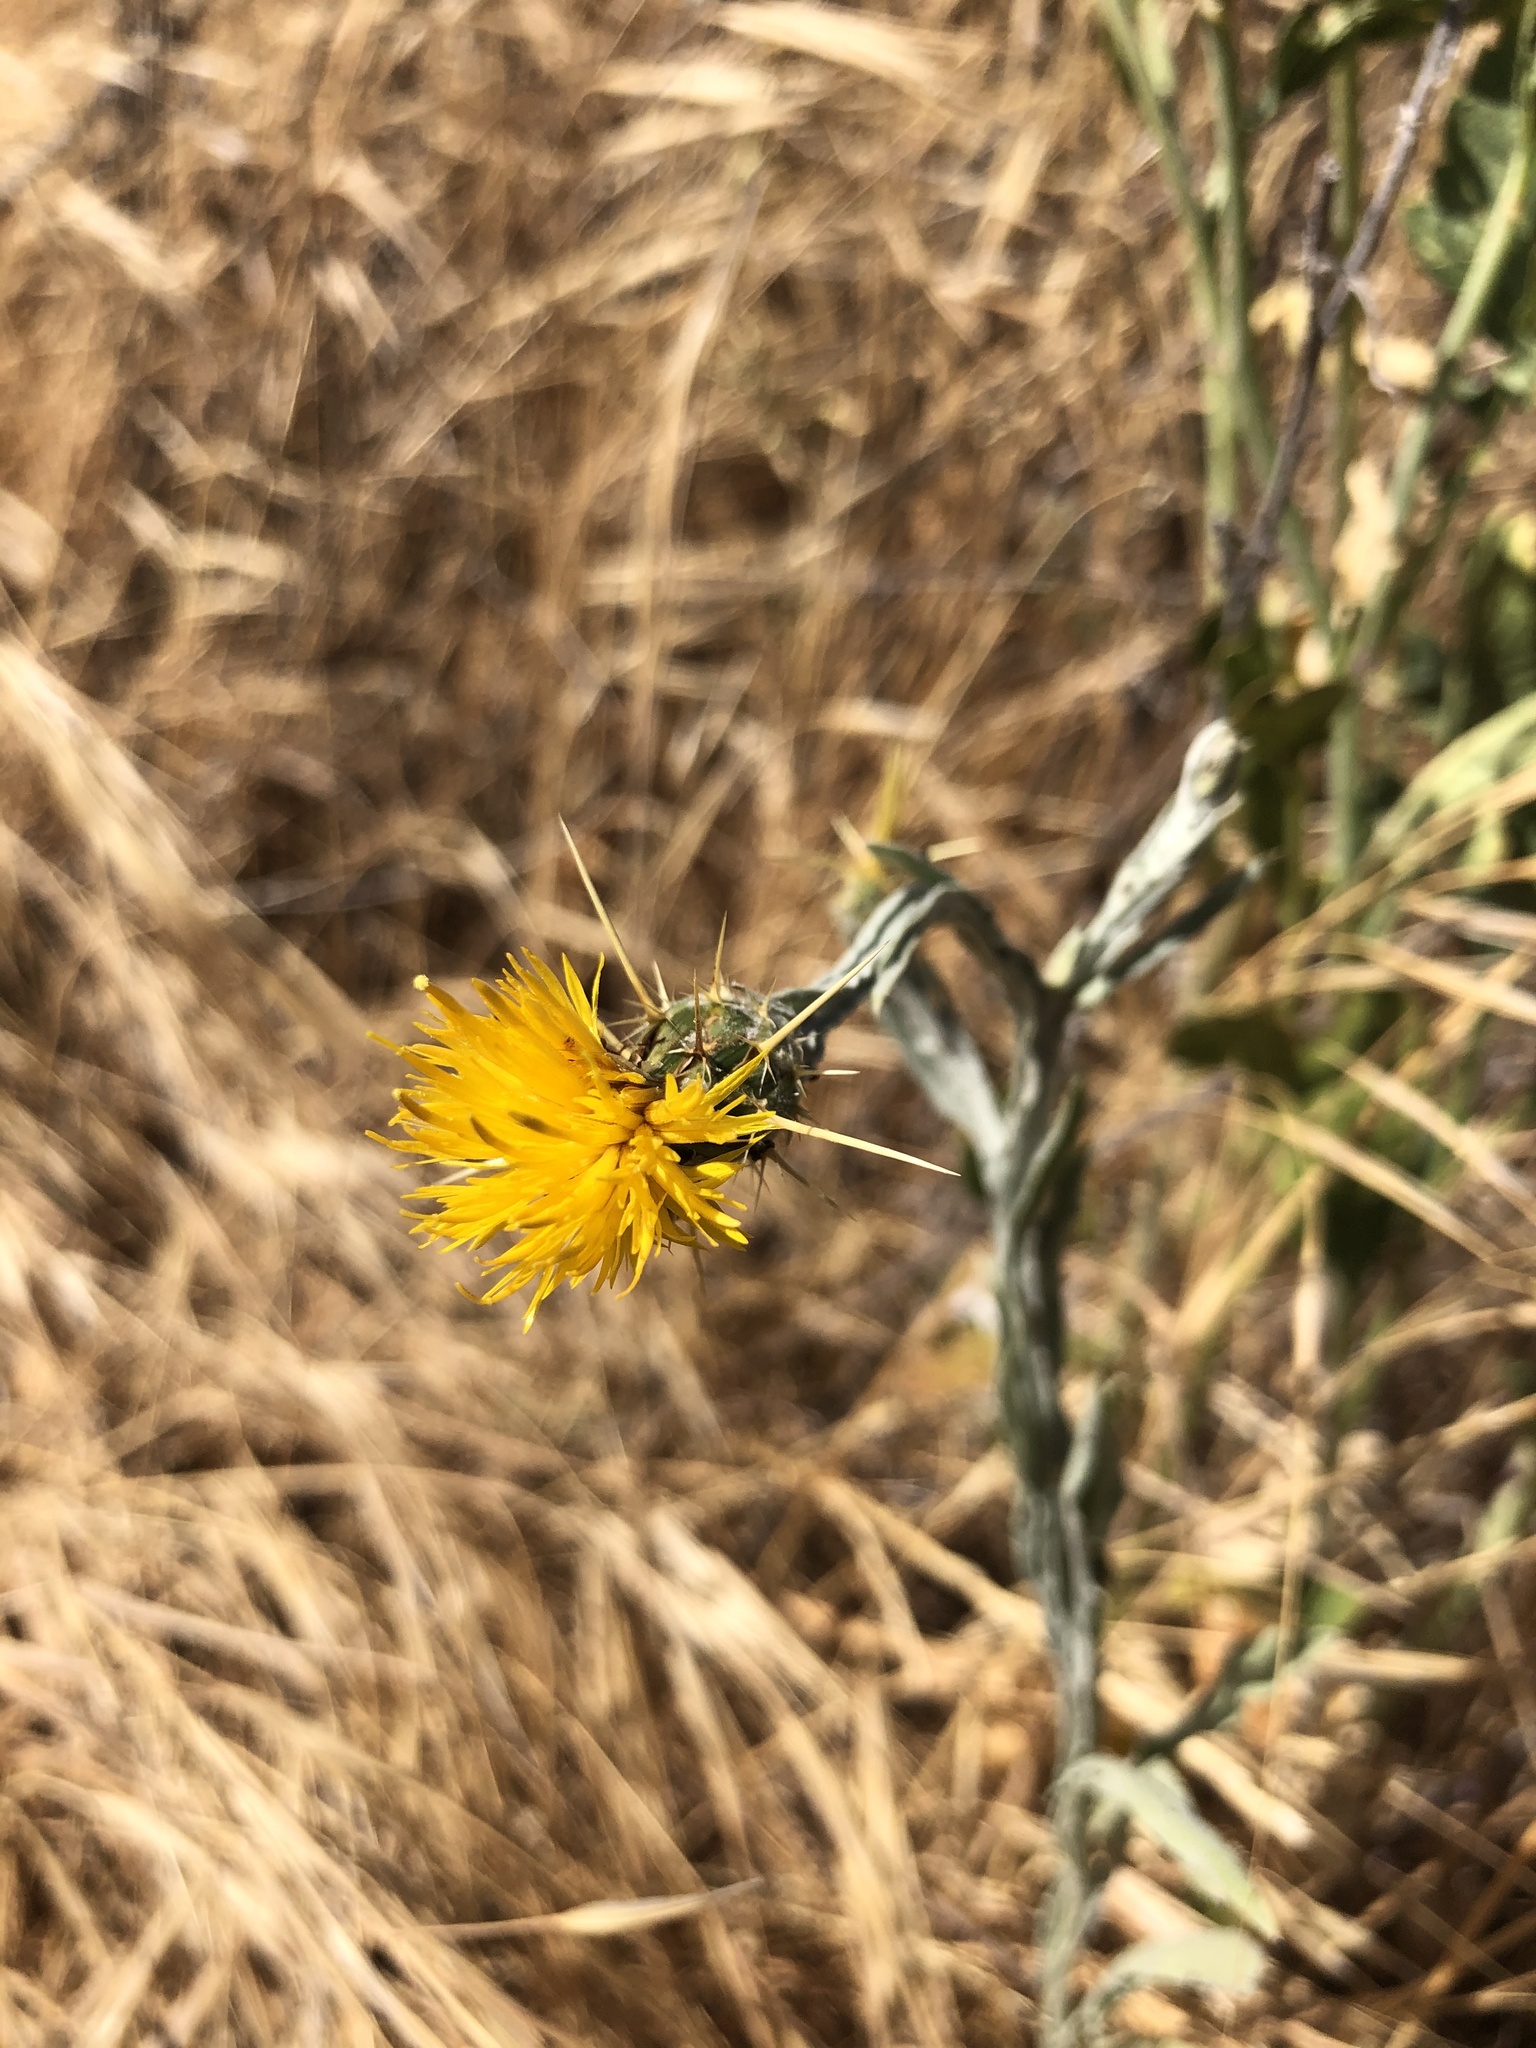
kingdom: Plantae
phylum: Tracheophyta
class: Magnoliopsida
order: Asterales
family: Asteraceae
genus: Centaurea
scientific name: Centaurea solstitialis
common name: Yellow star-thistle
